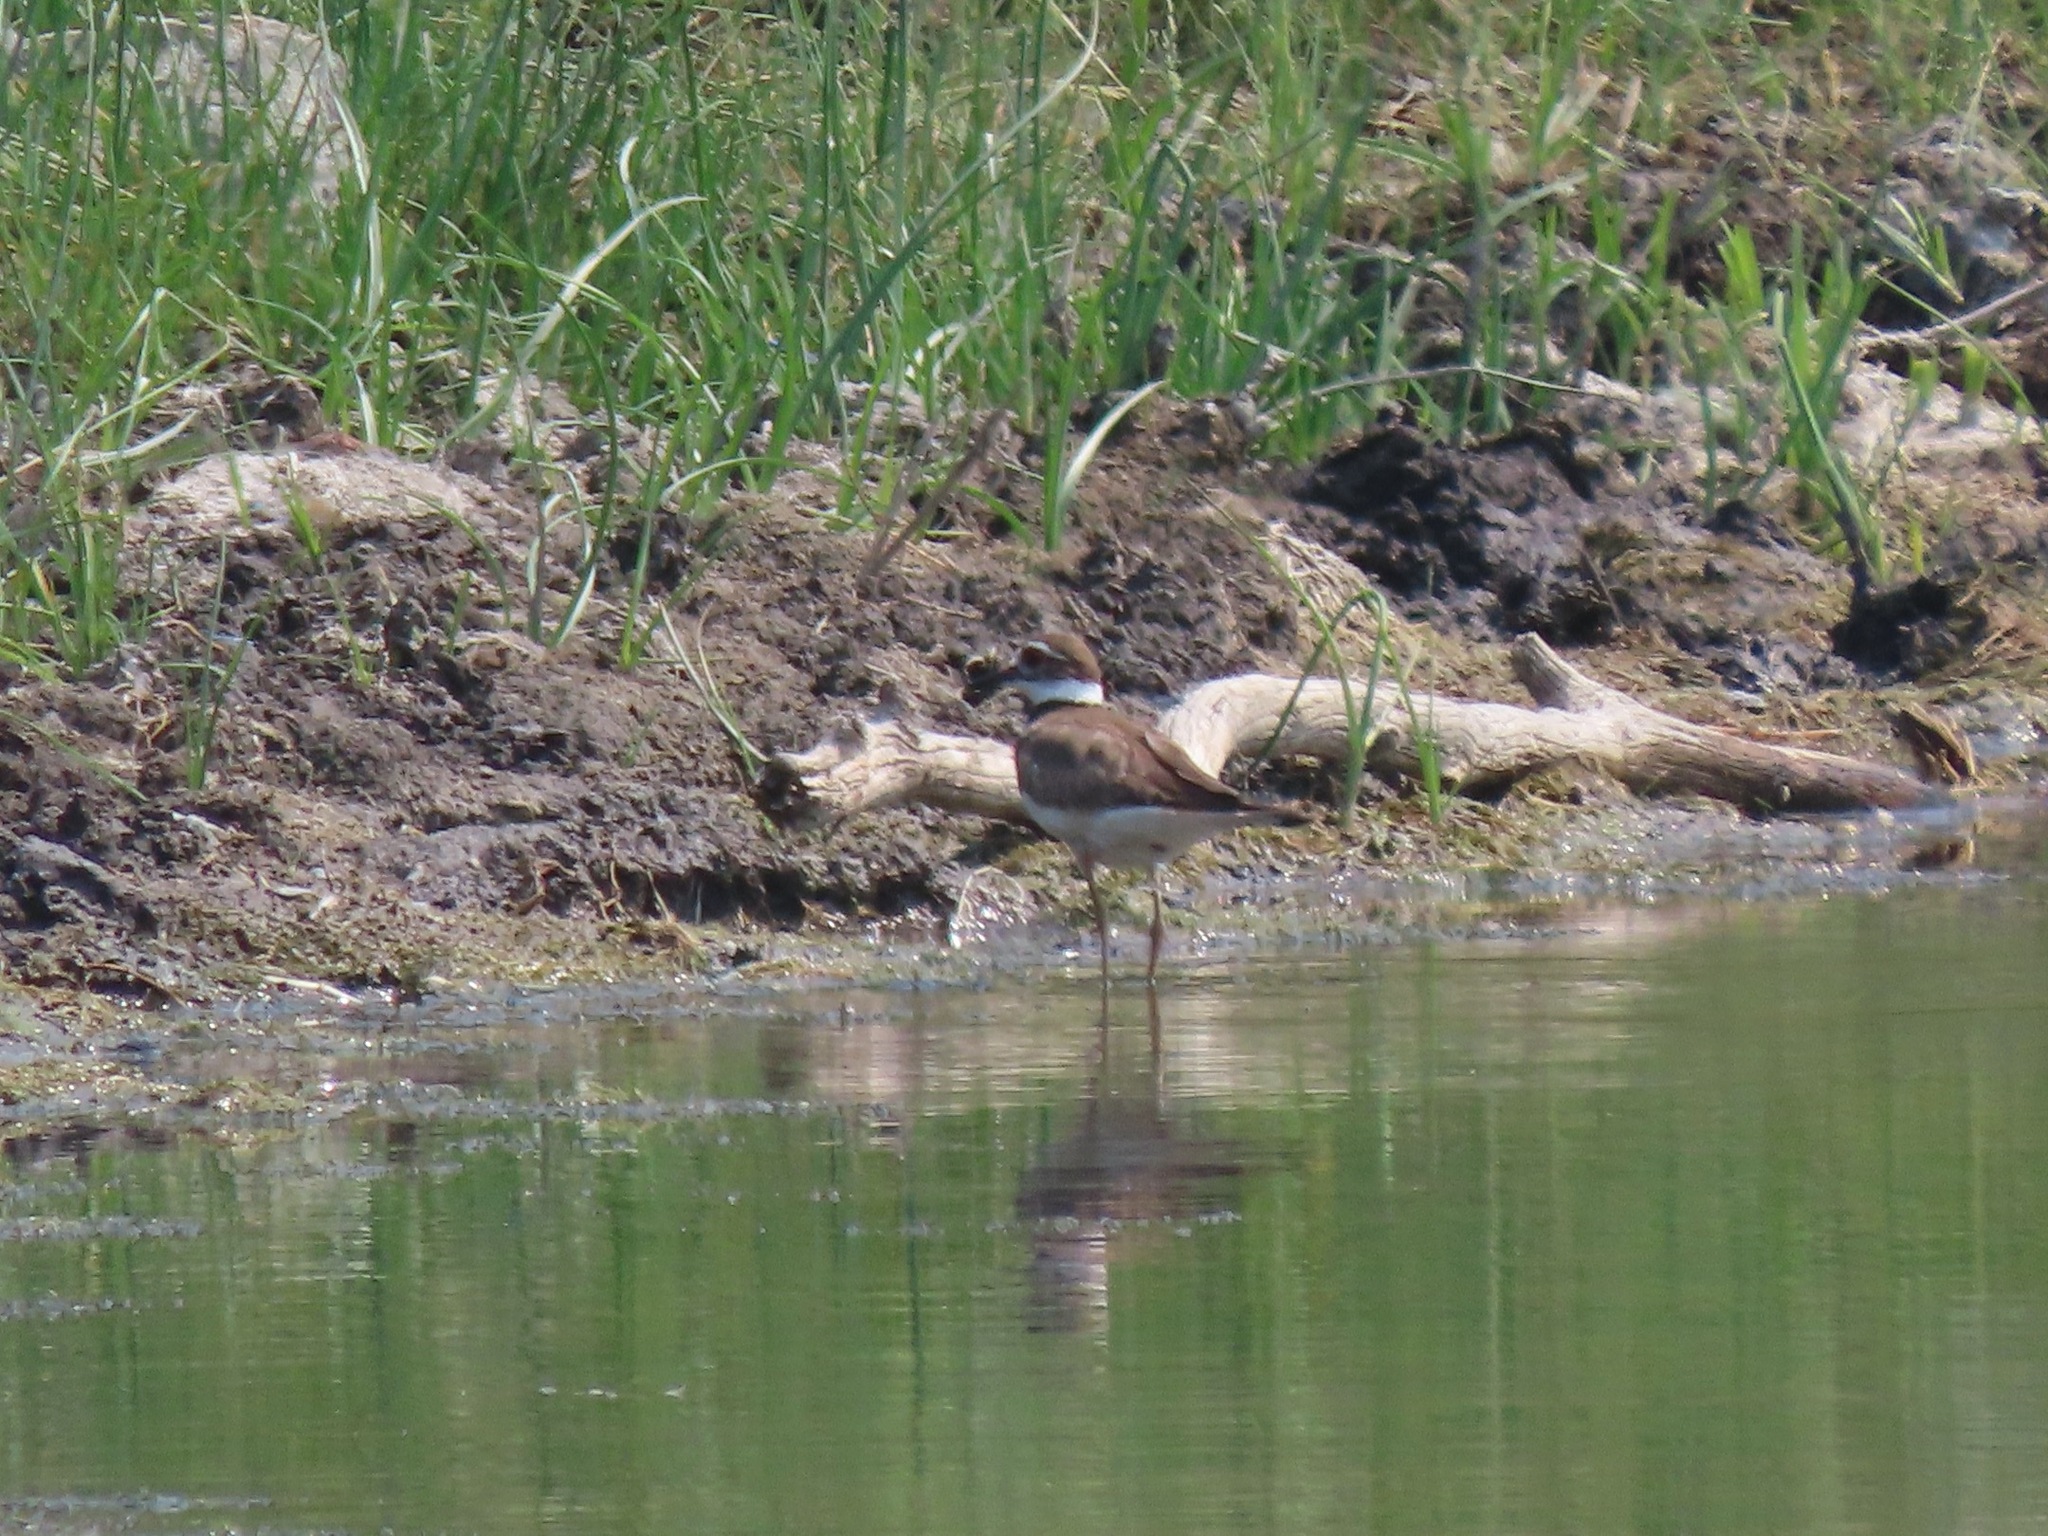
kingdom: Animalia
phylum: Chordata
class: Aves
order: Charadriiformes
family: Charadriidae
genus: Charadrius
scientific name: Charadrius vociferus
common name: Killdeer
